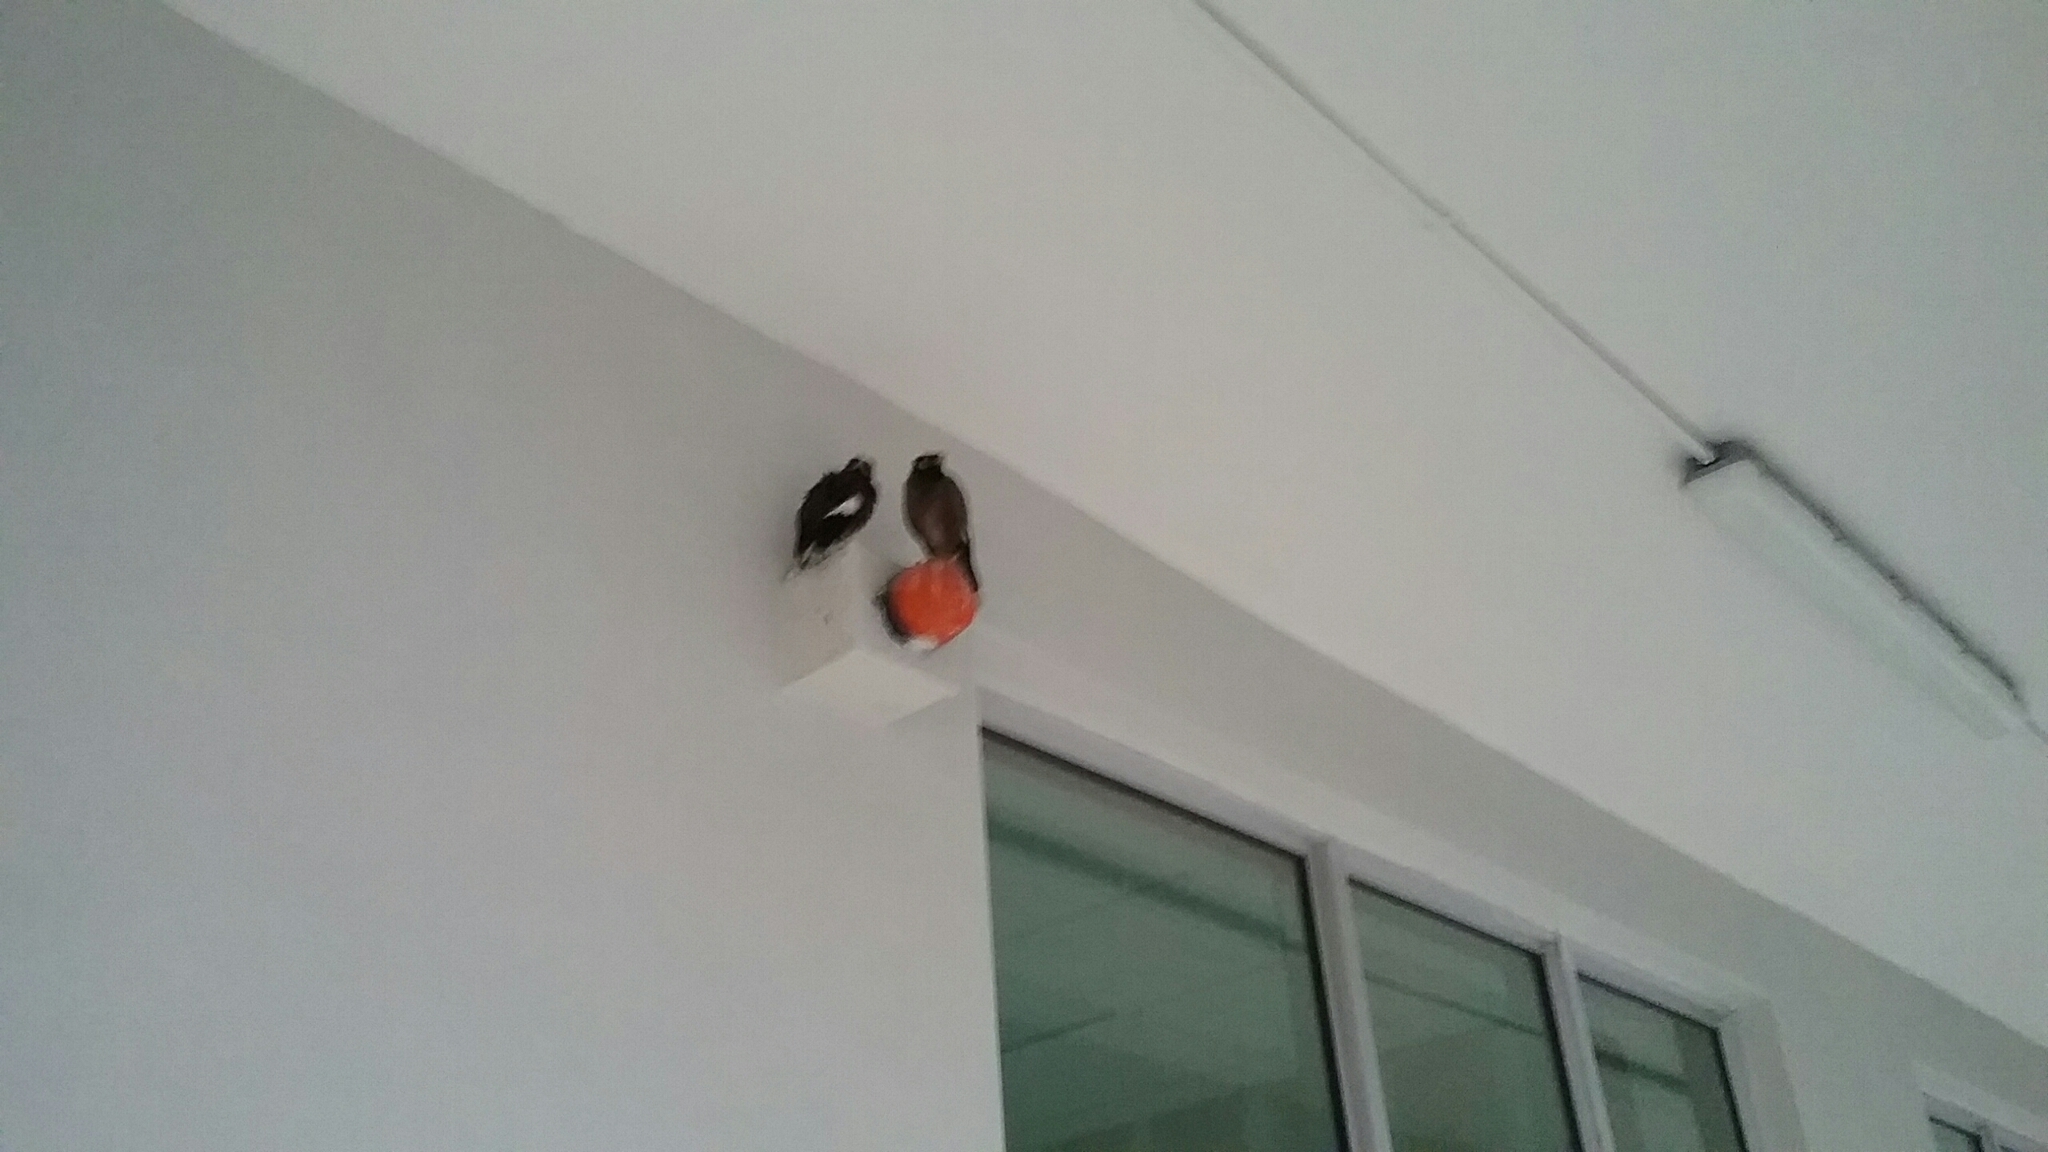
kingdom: Animalia
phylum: Chordata
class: Aves
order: Passeriformes
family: Sturnidae
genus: Acridotheres
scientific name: Acridotheres tristis
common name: Common myna
